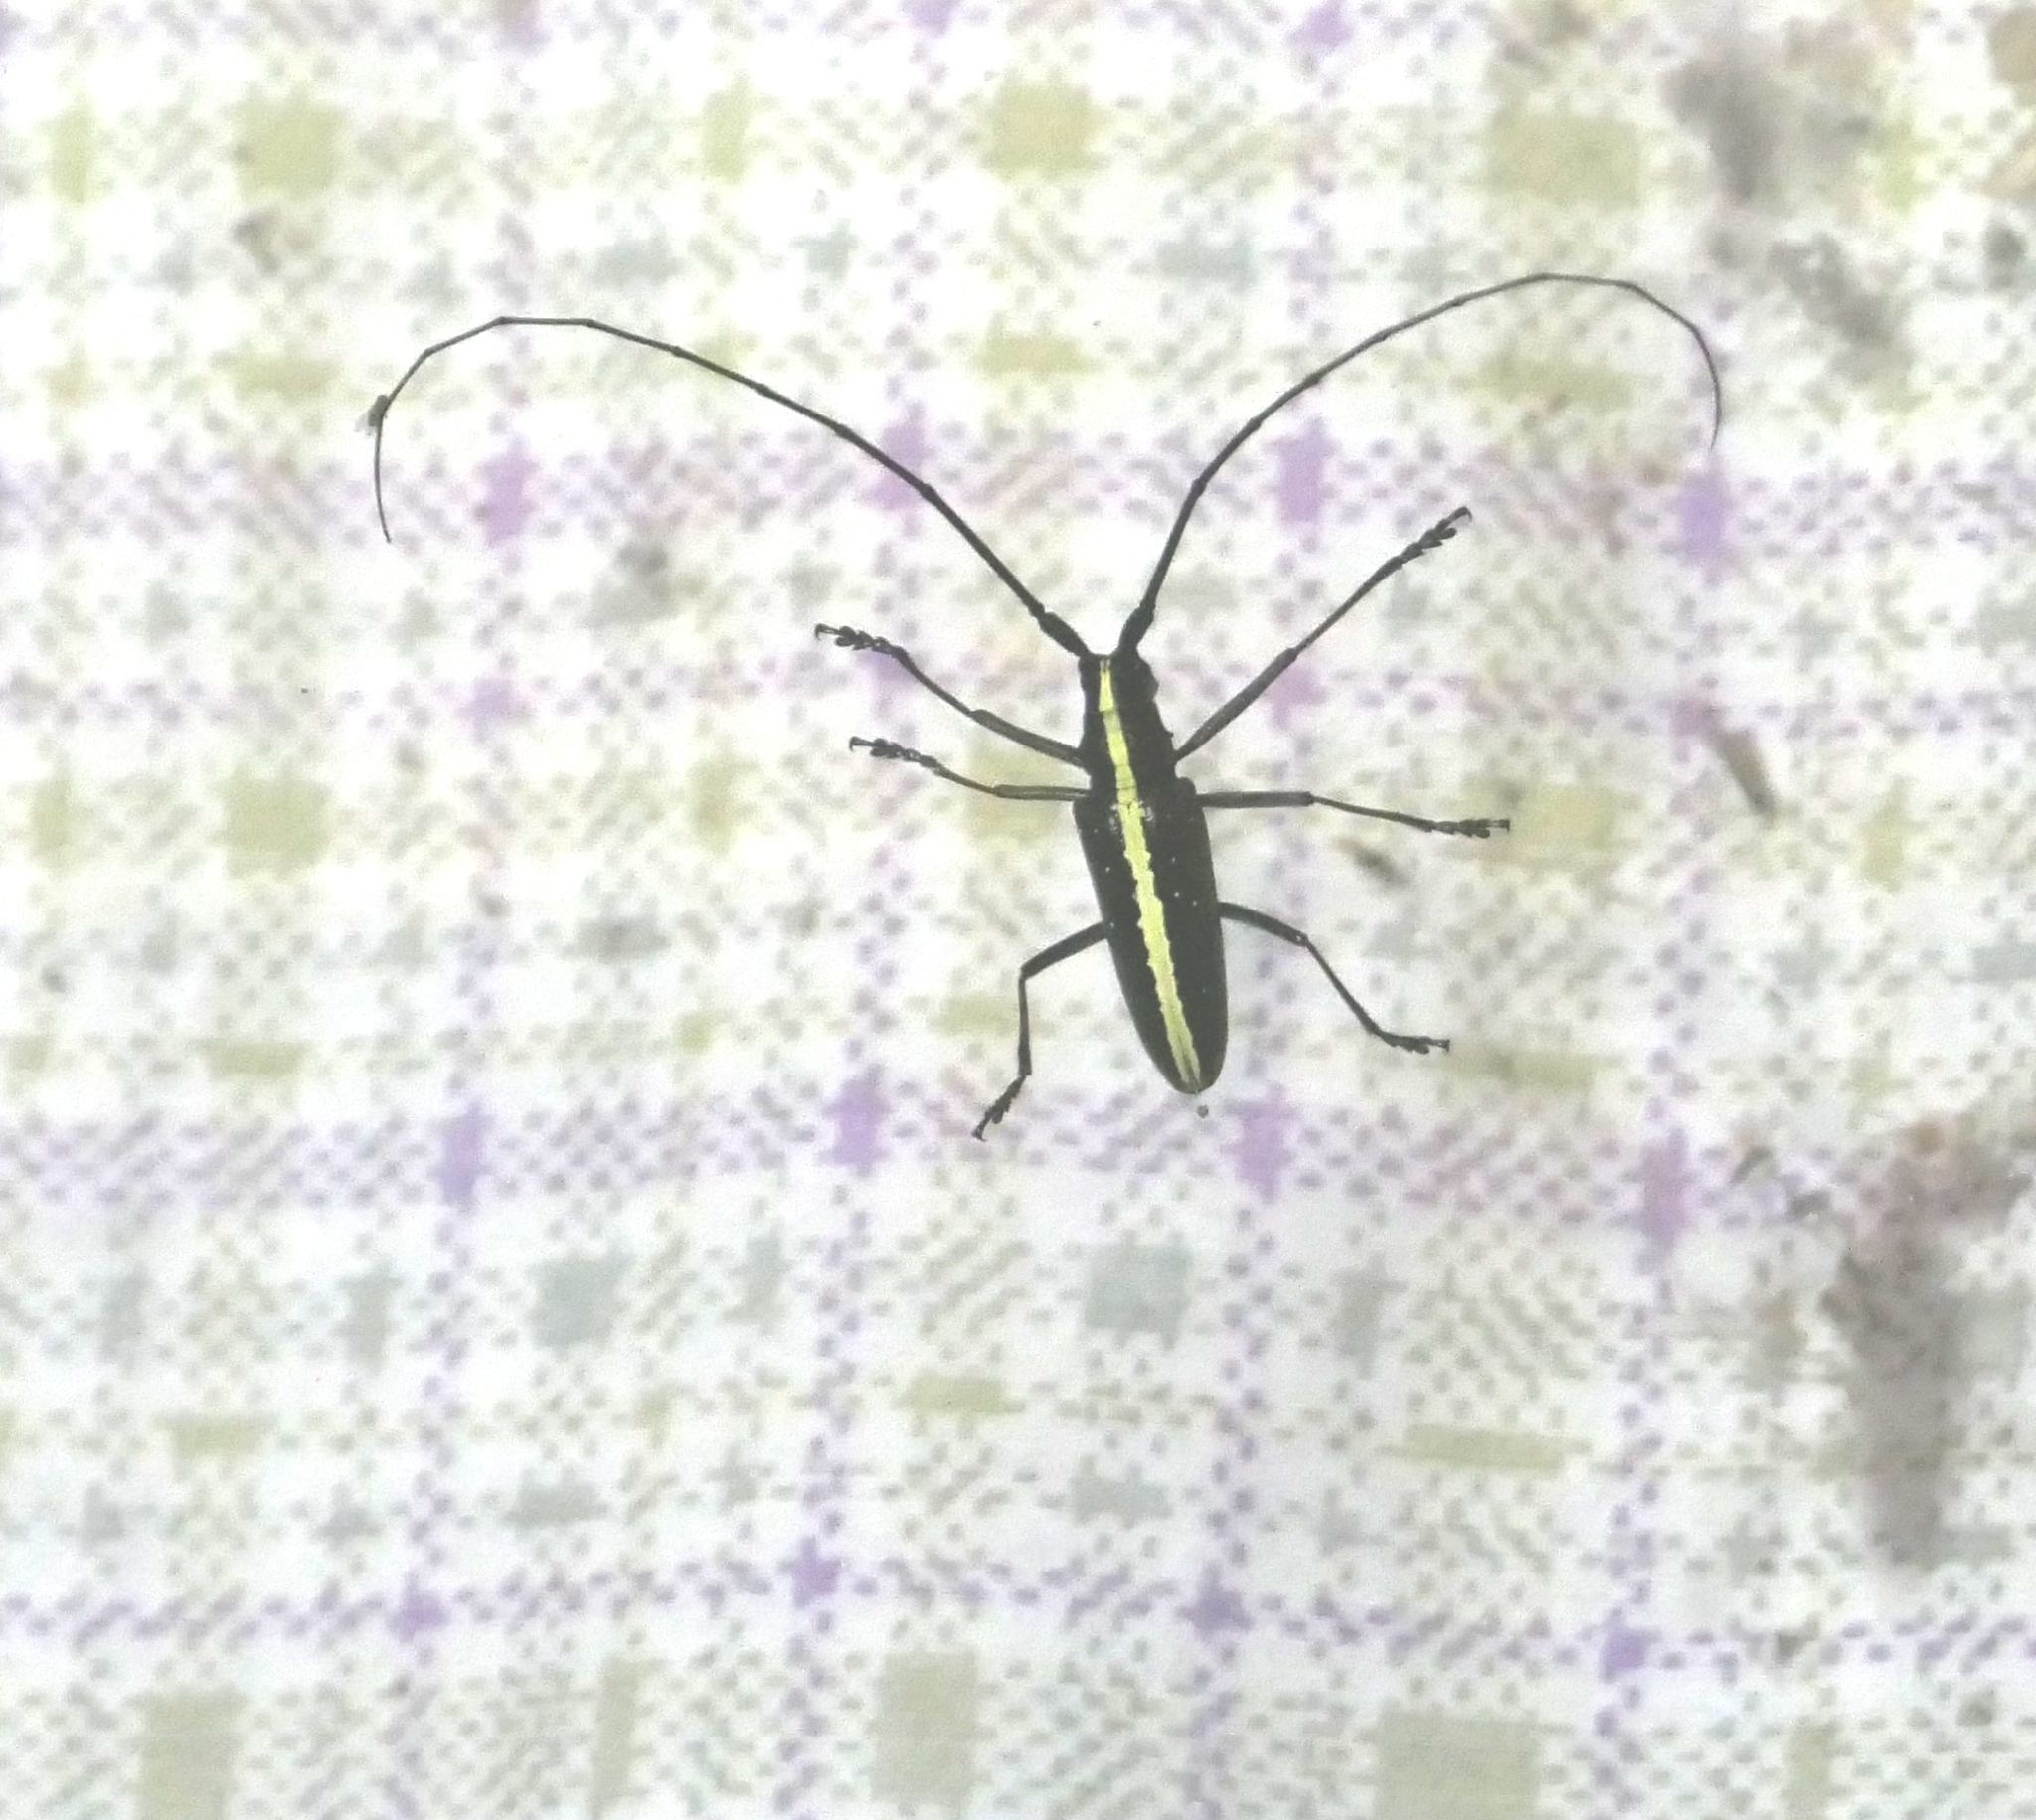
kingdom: Animalia
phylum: Arthropoda
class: Insecta
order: Coleoptera
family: Cerambycidae
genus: Taeniotes
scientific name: Taeniotes scalatus
